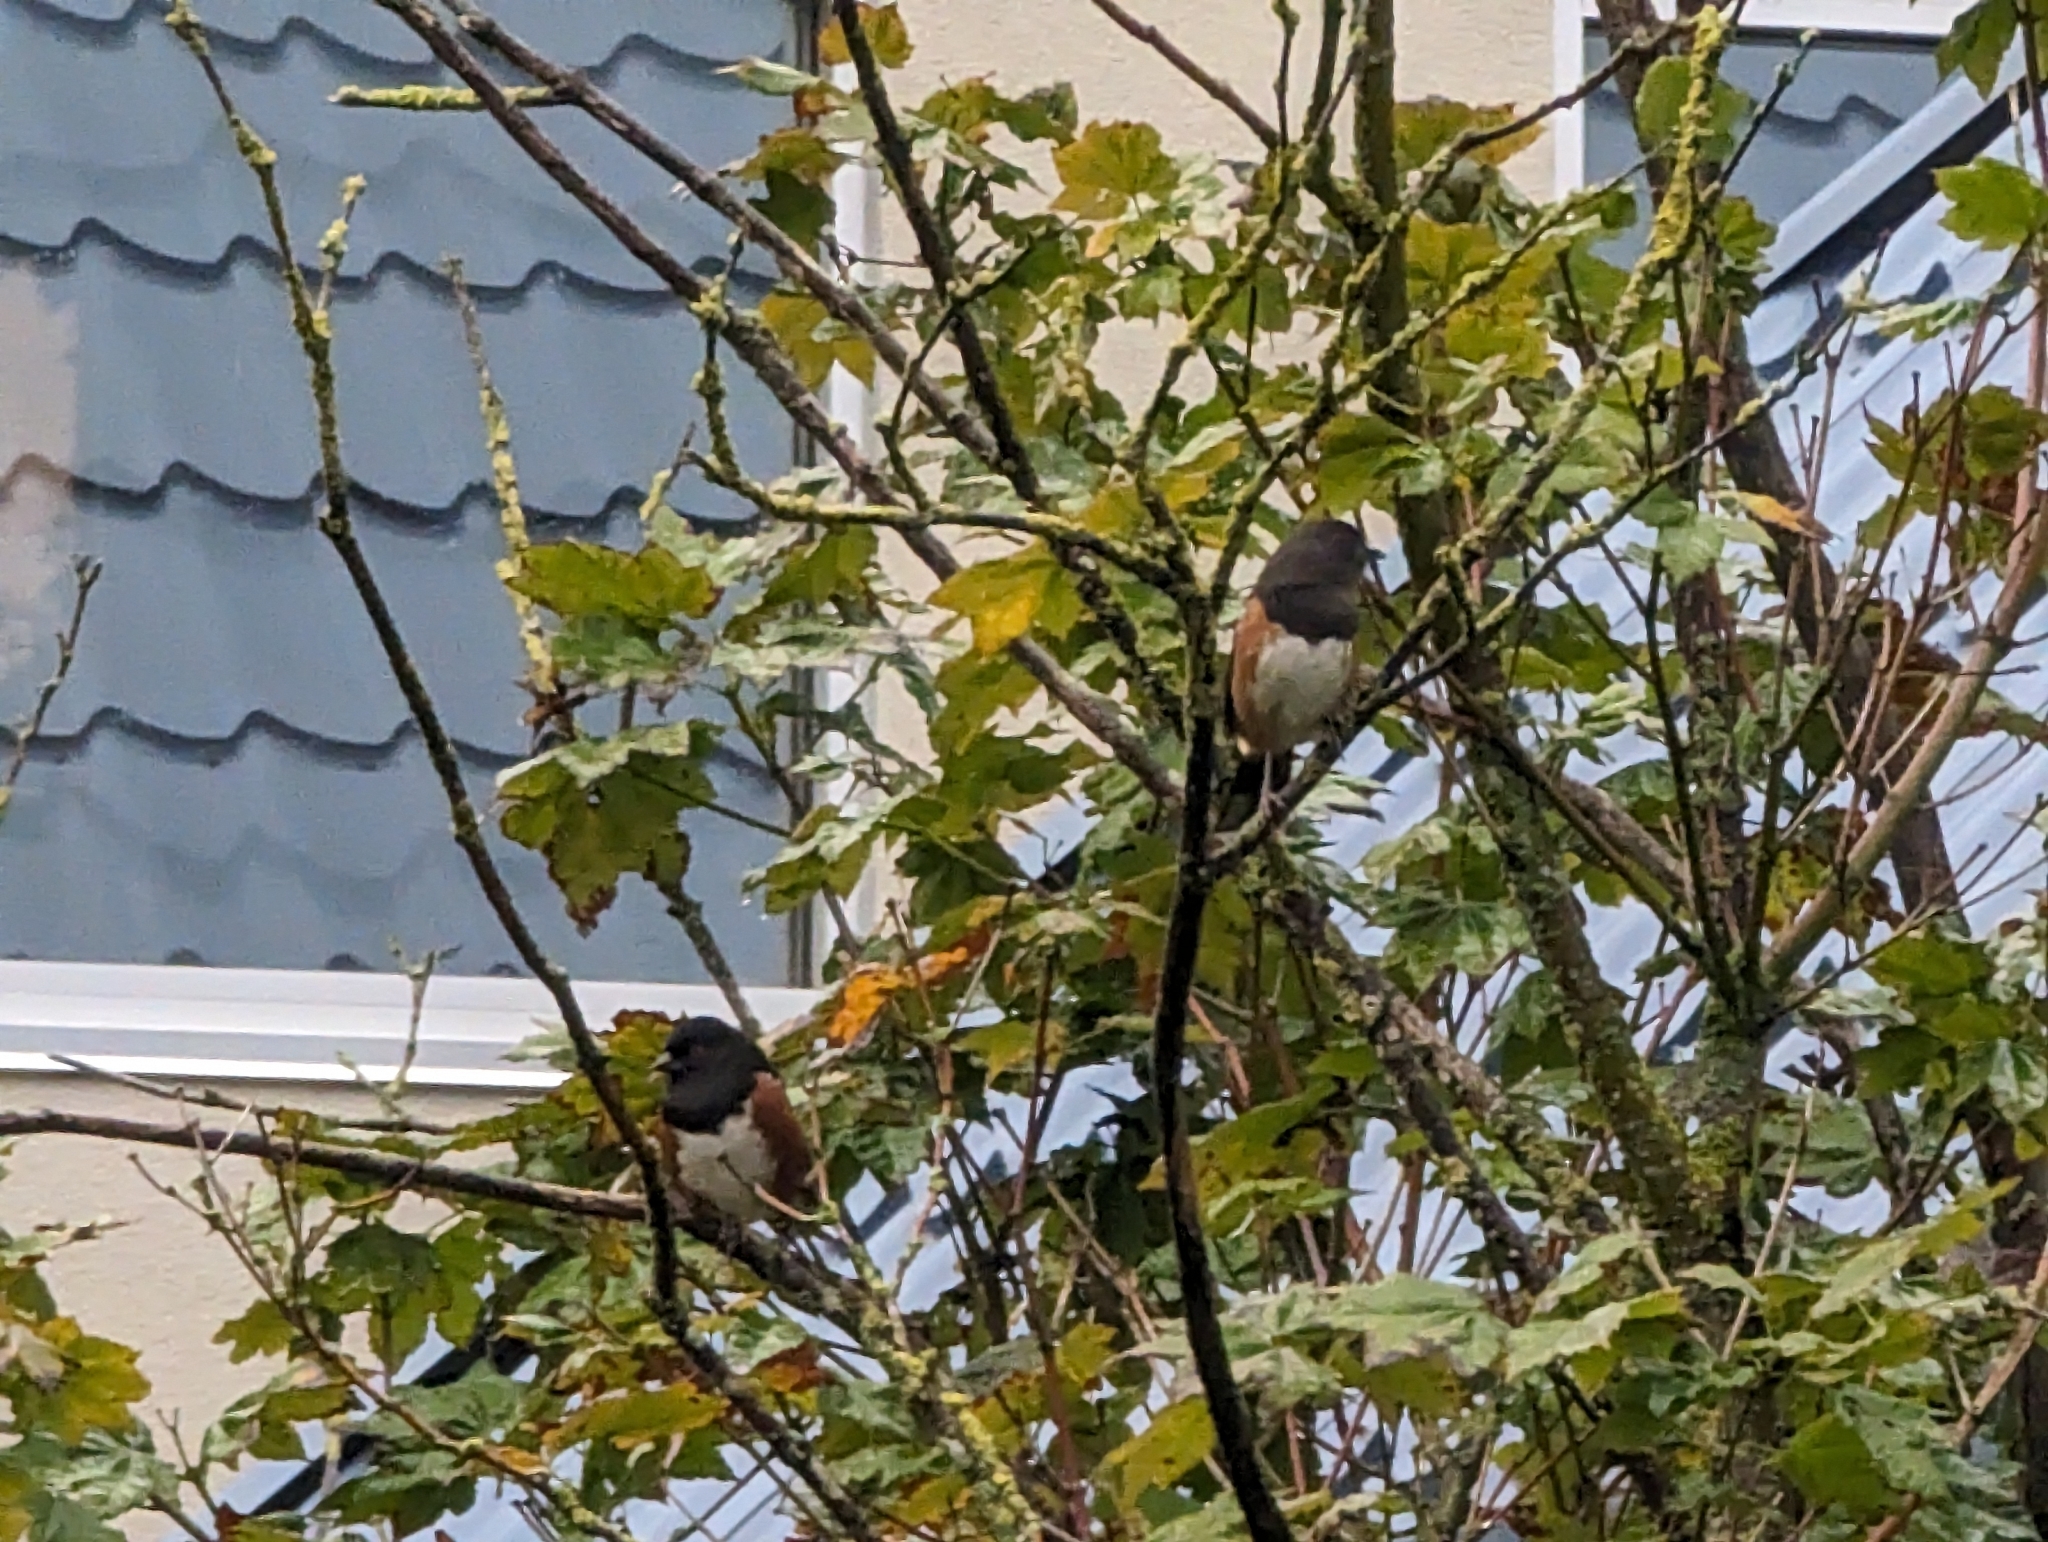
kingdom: Animalia
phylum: Chordata
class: Aves
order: Passeriformes
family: Passerellidae
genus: Pipilo
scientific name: Pipilo maculatus
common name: Spotted towhee
